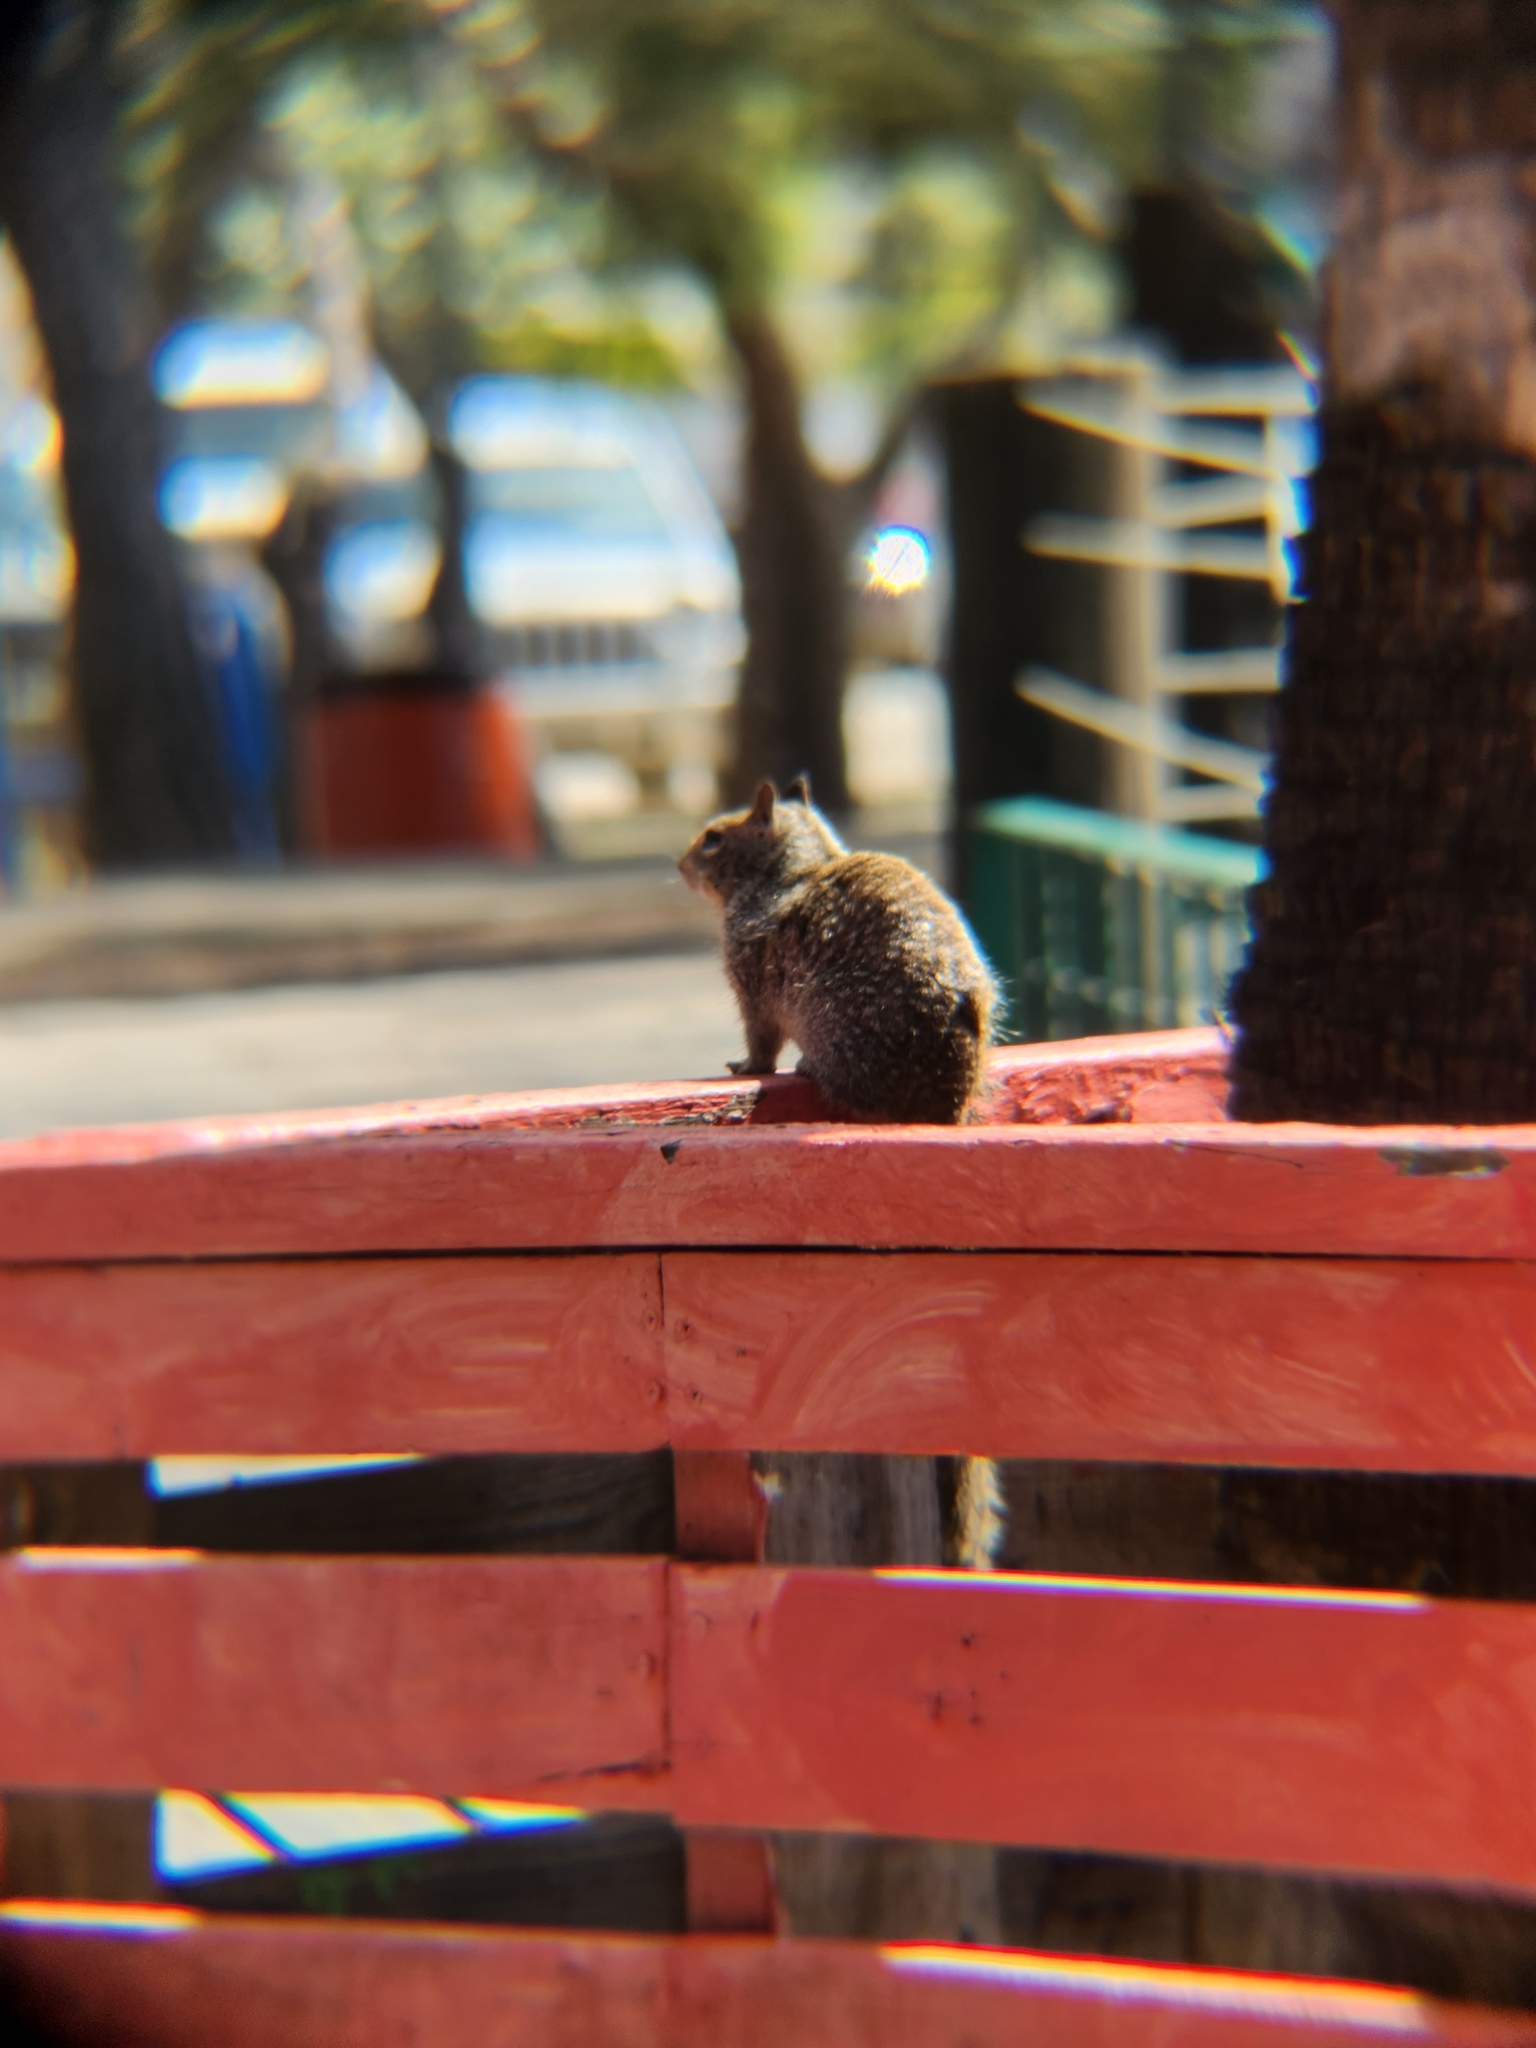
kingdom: Animalia
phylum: Chordata
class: Mammalia
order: Rodentia
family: Sciuridae
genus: Otospermophilus
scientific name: Otospermophilus beecheyi
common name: California ground squirrel
